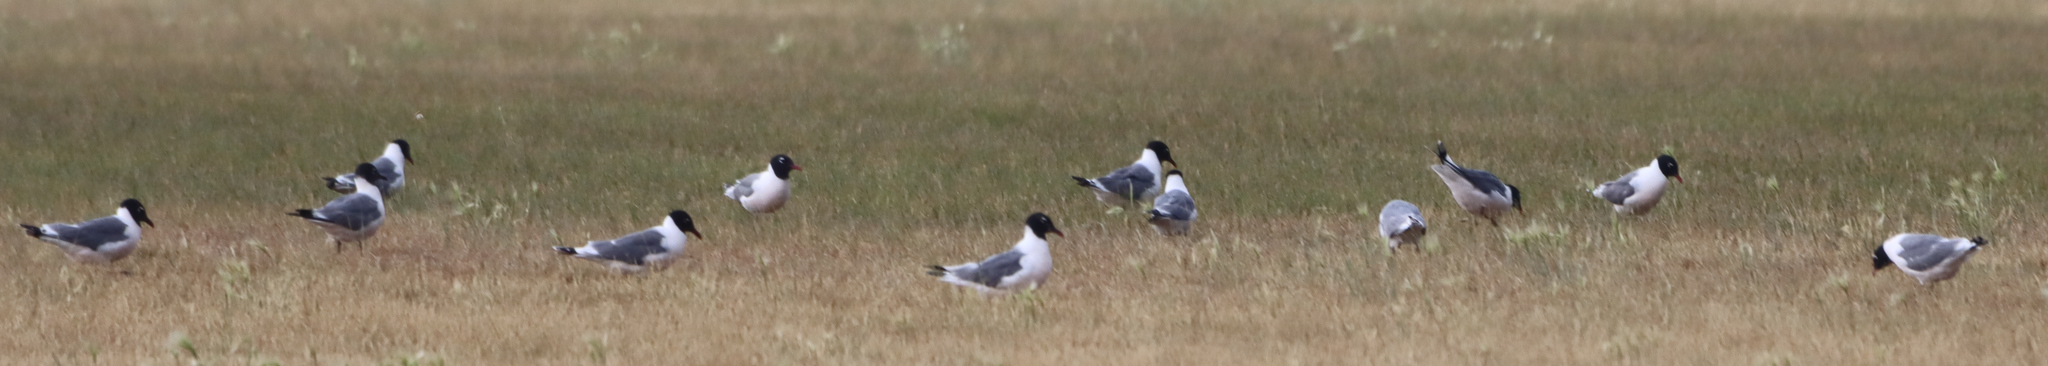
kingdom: Animalia
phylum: Chordata
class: Aves
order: Charadriiformes
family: Laridae
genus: Leucophaeus
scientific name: Leucophaeus pipixcan
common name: Franklin's gull
